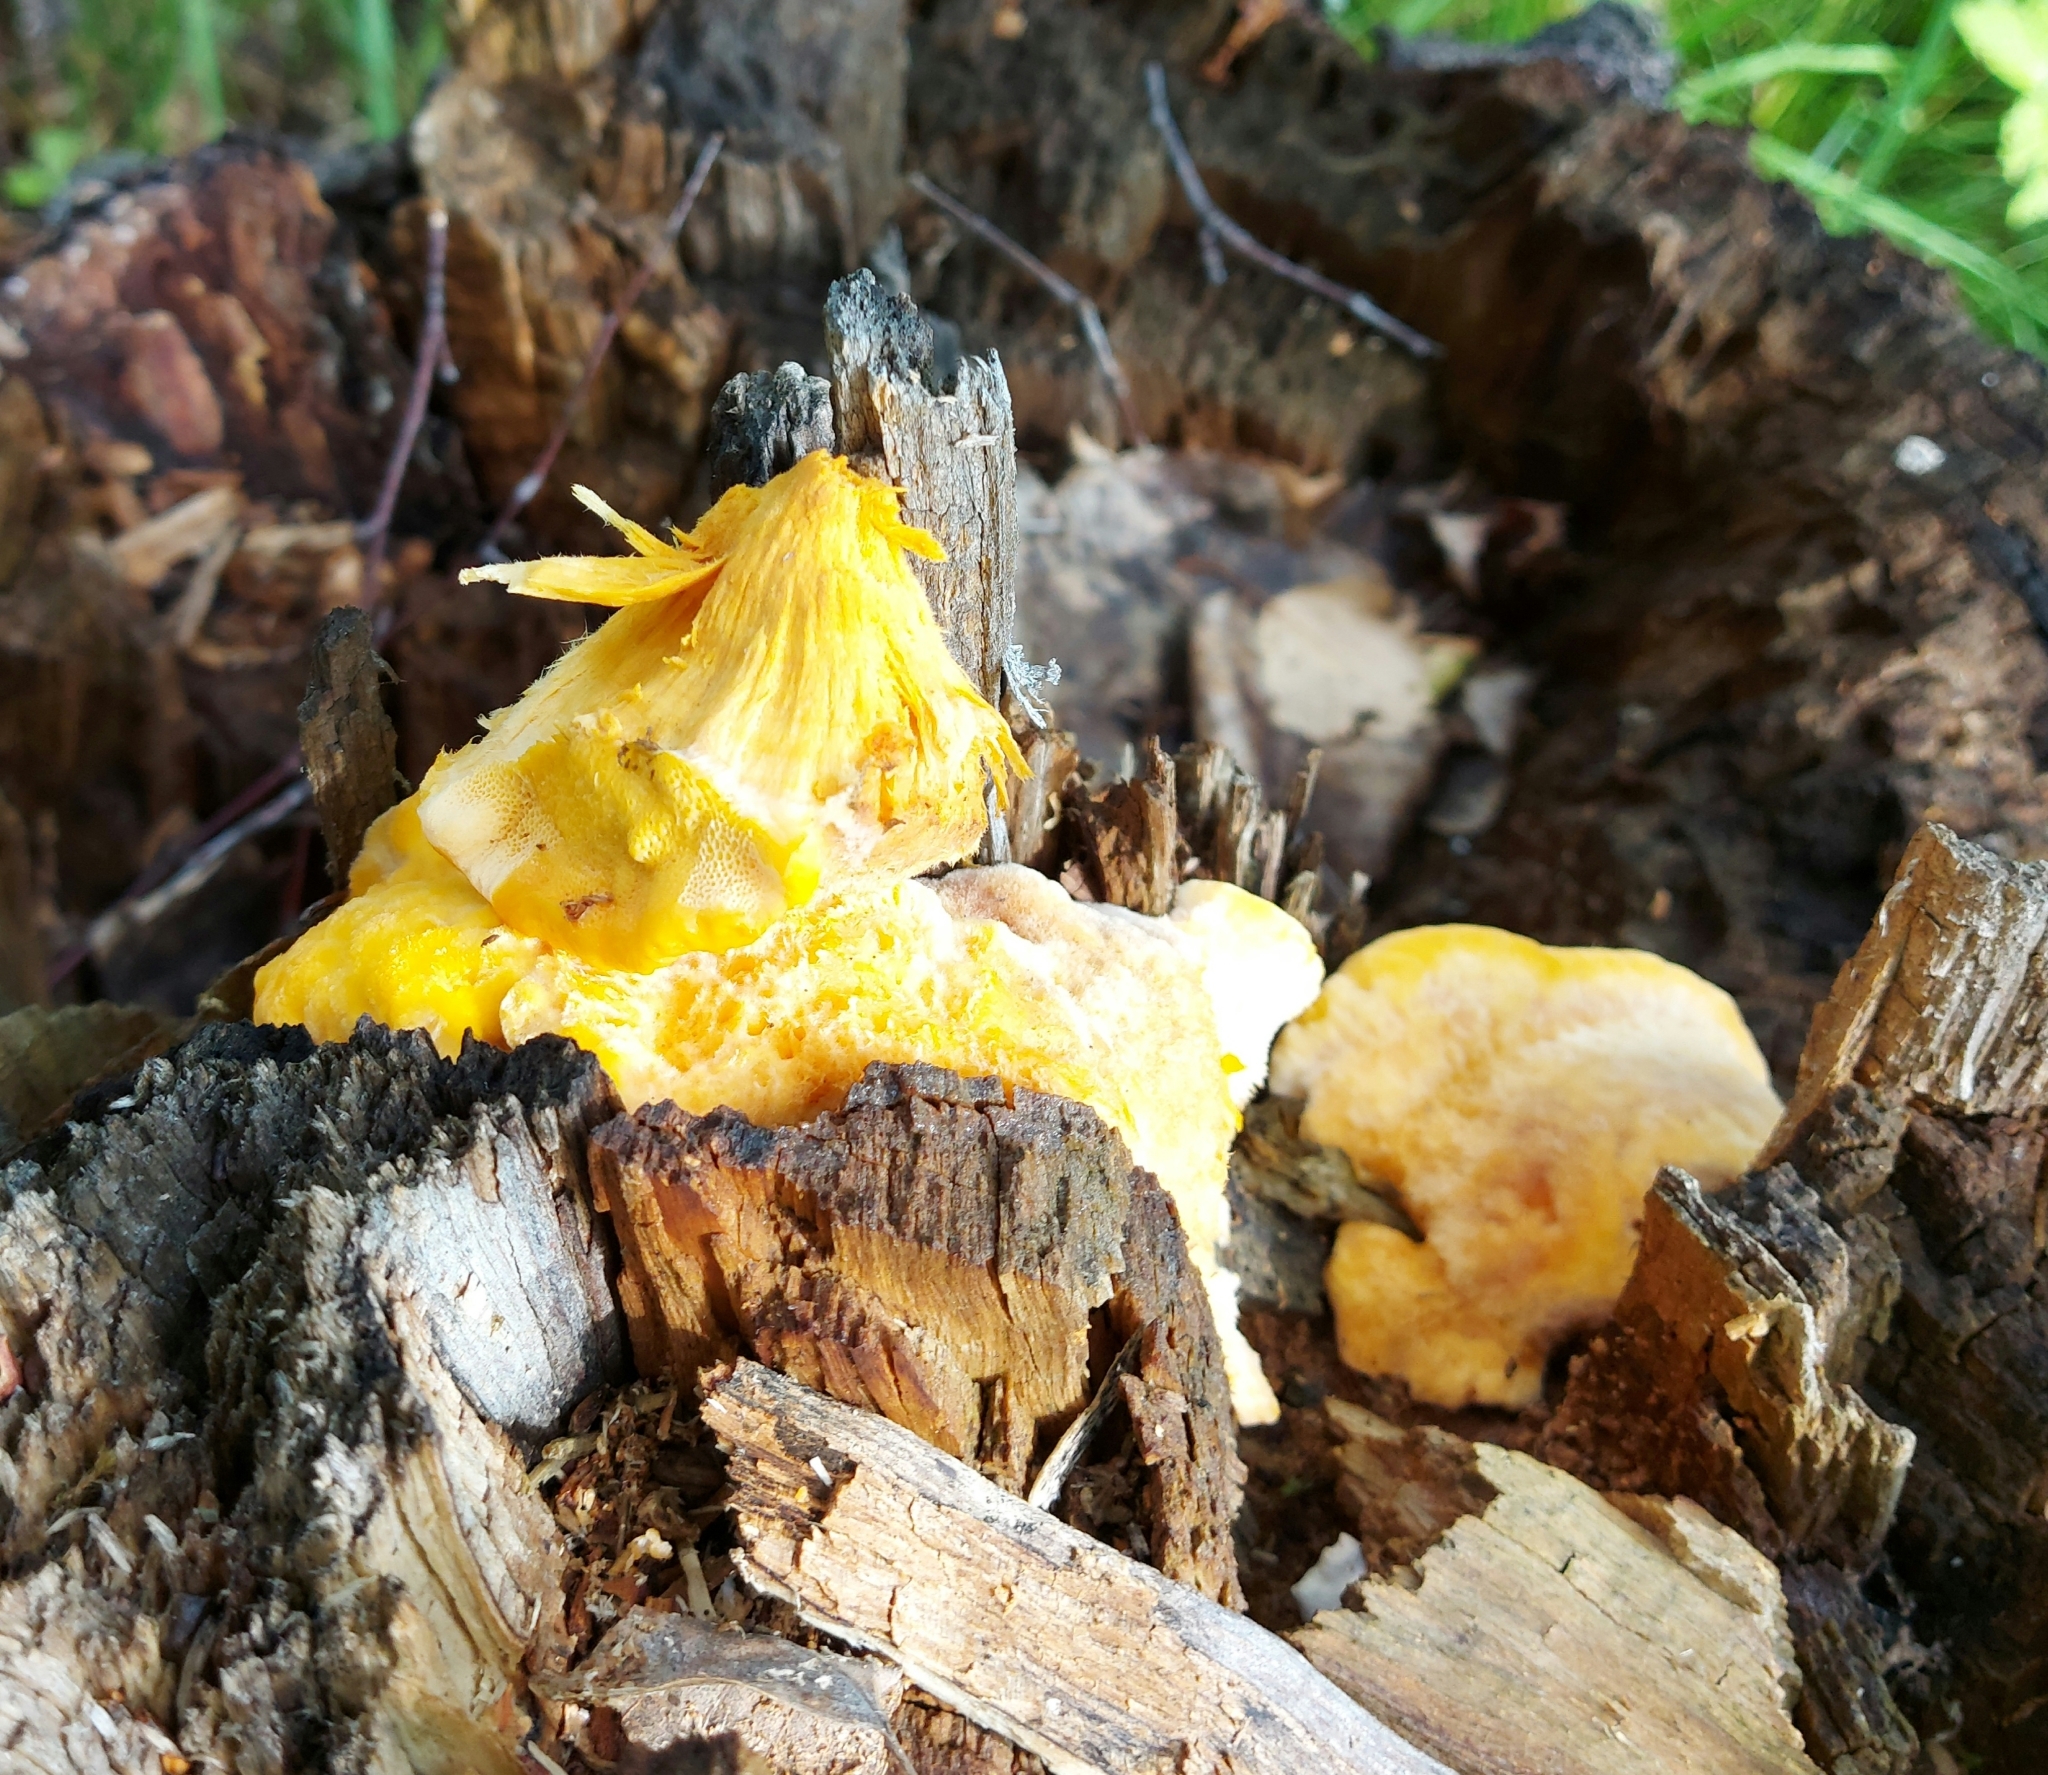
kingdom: Fungi
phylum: Basidiomycota
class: Agaricomycetes
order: Polyporales
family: Laetiporaceae
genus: Laetiporus
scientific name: Laetiporus sulphureus
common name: Chicken of the woods
